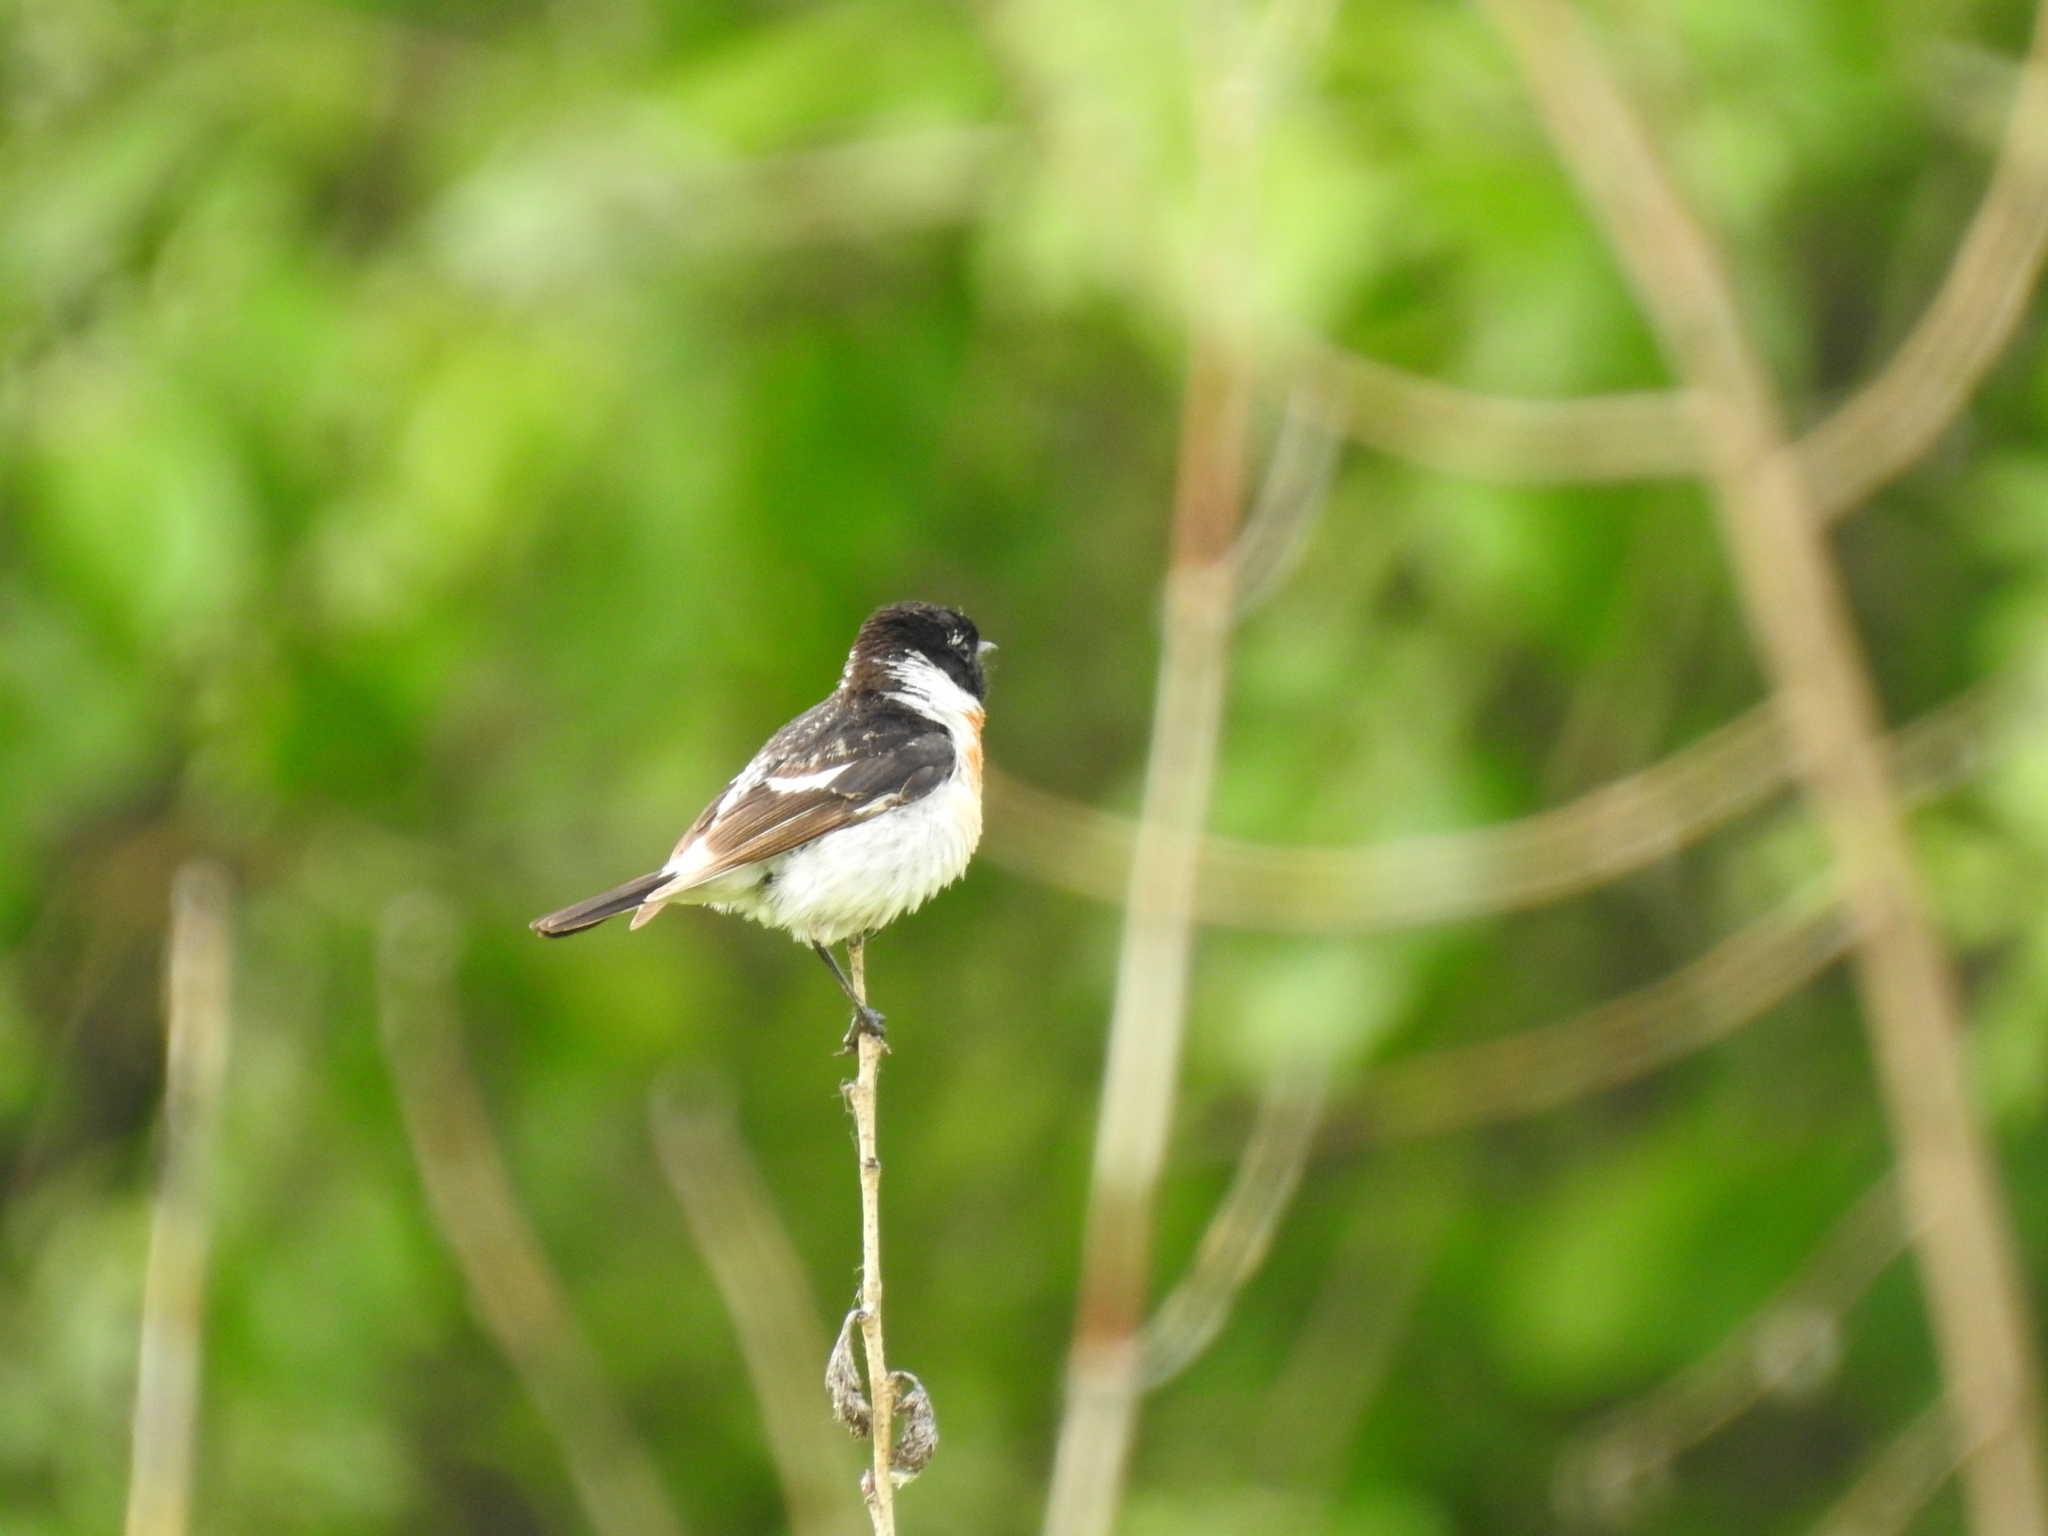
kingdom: Animalia
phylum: Chordata
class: Aves
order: Passeriformes
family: Muscicapidae
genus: Saxicola
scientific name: Saxicola maurus
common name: Siberian stonechat
